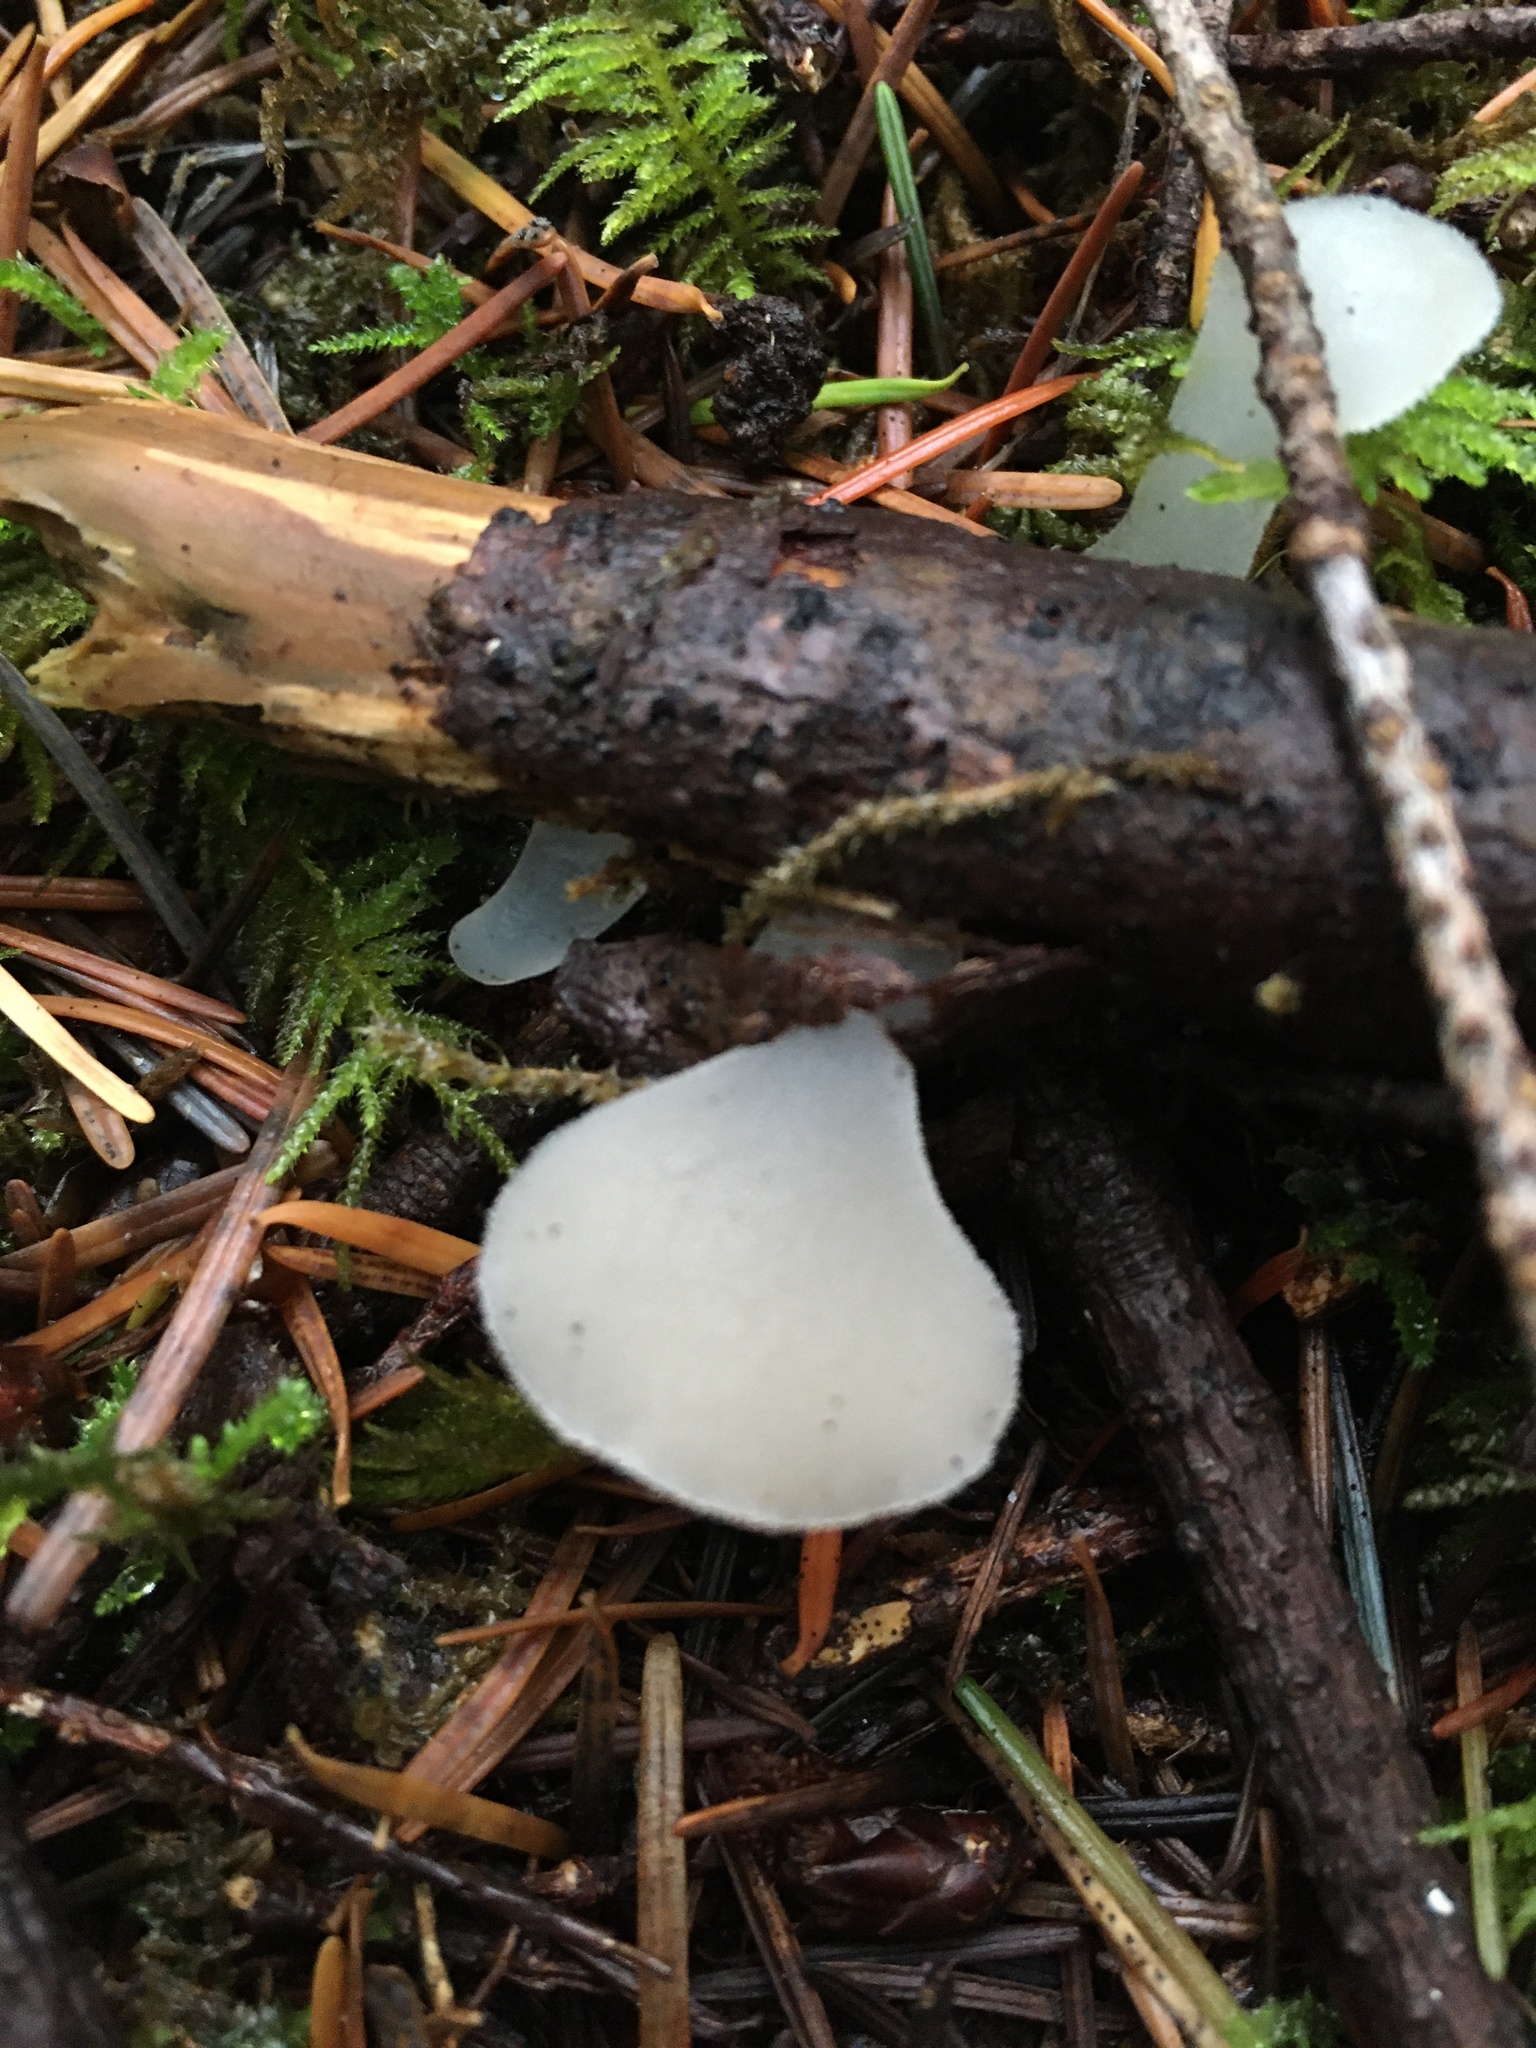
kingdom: Fungi
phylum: Basidiomycota
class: Agaricomycetes
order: Auriculariales
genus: Pseudohydnum
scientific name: Pseudohydnum gelatinosum
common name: Jelly tongue
